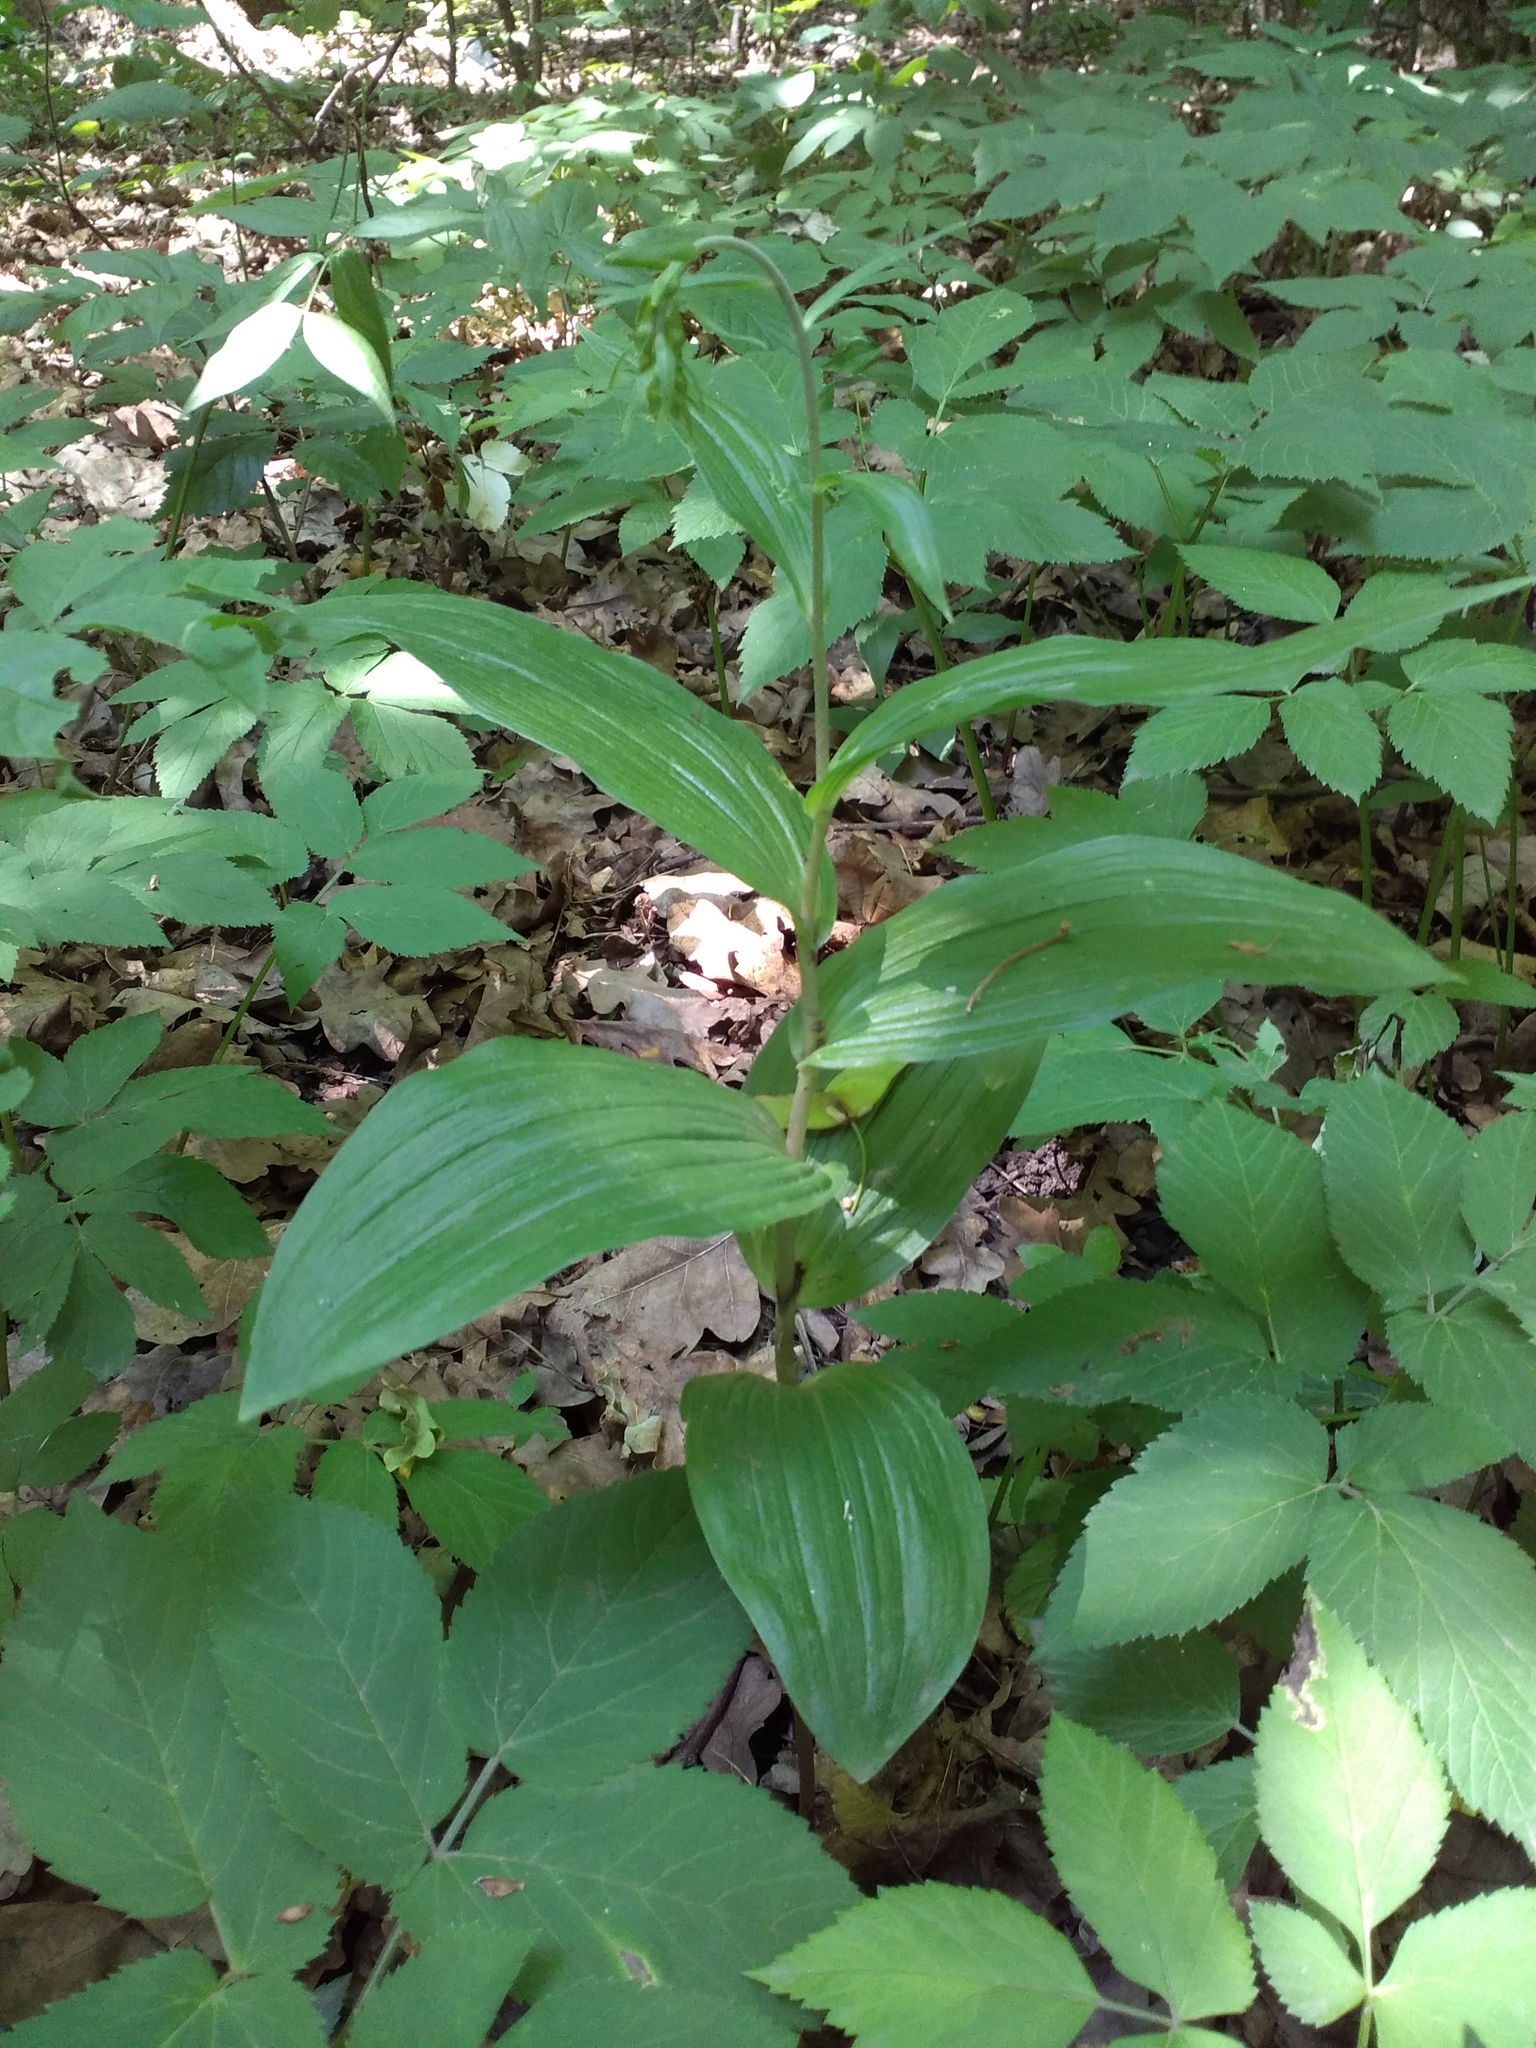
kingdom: Plantae
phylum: Tracheophyta
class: Liliopsida
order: Asparagales
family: Orchidaceae
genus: Epipactis
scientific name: Epipactis helleborine
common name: Broad-leaved helleborine
